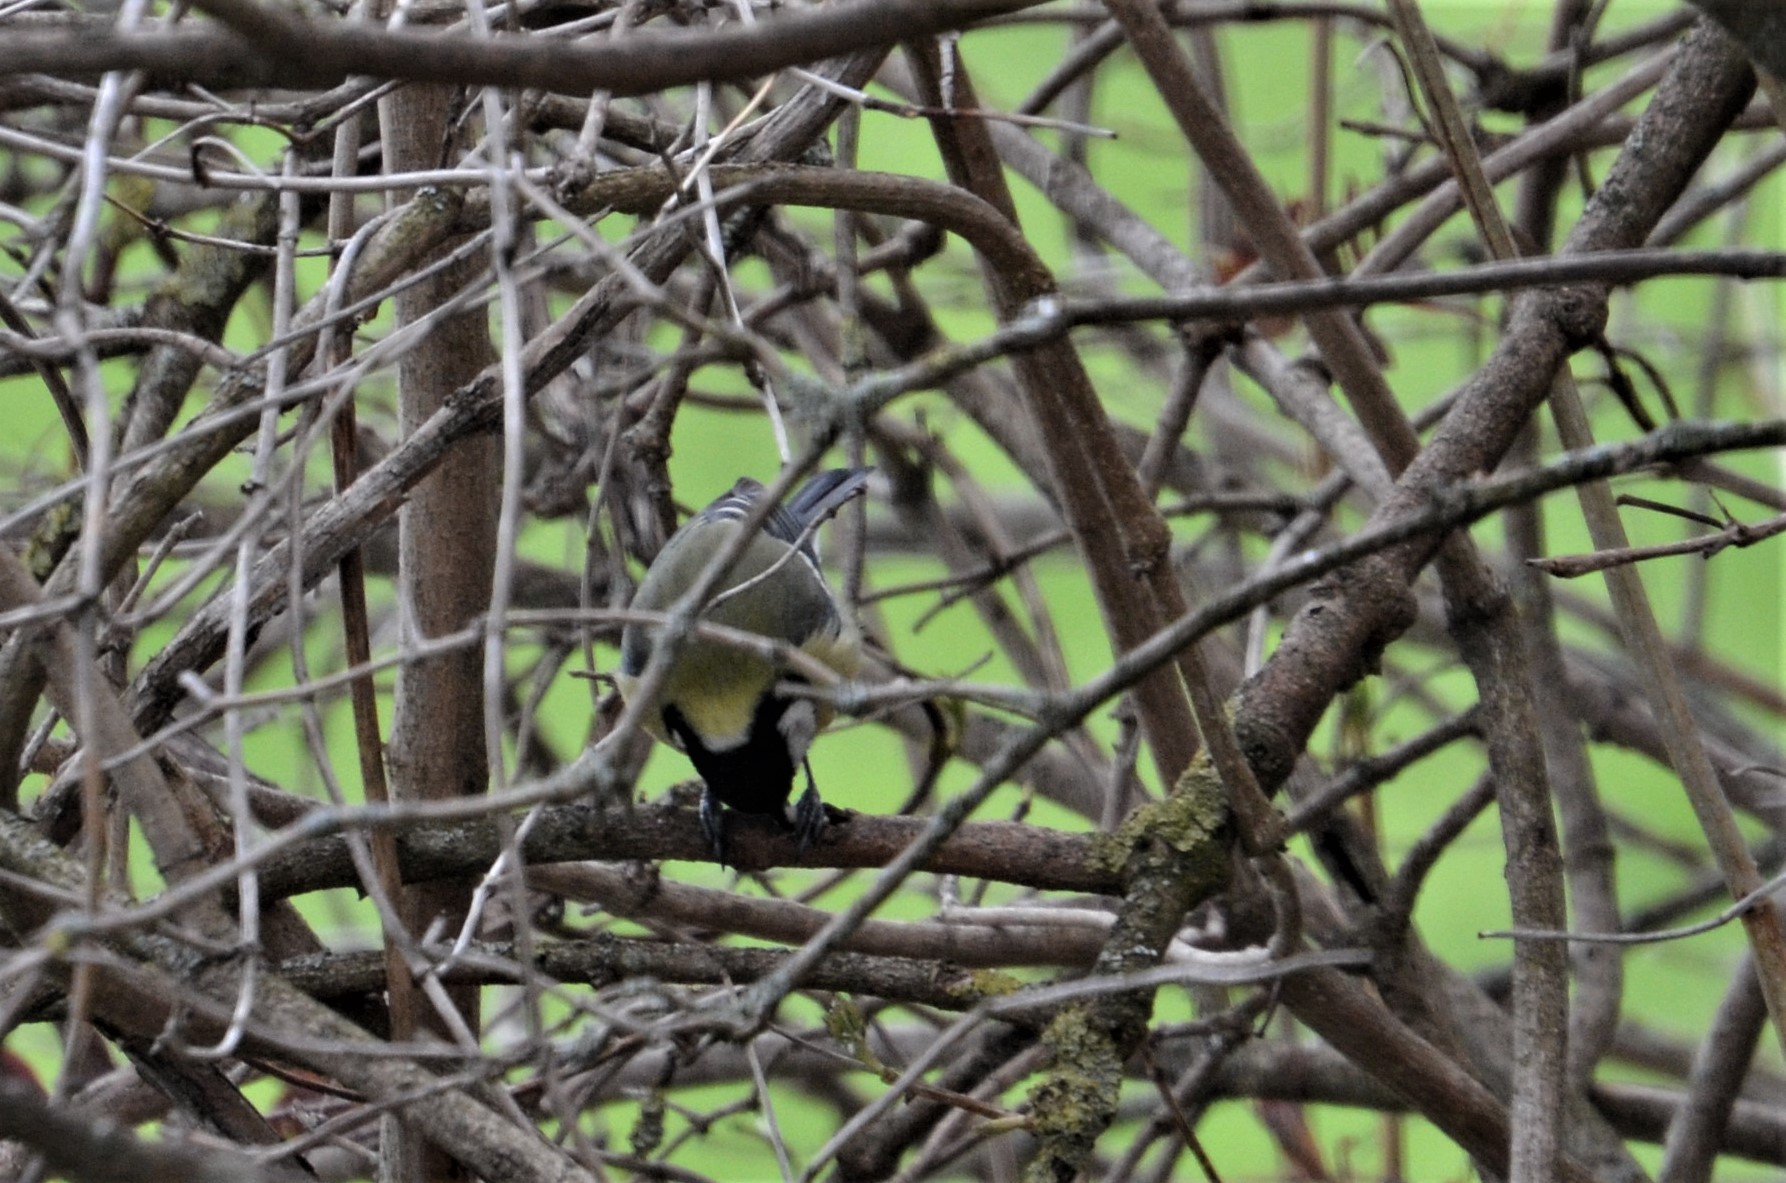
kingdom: Animalia
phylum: Chordata
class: Aves
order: Passeriformes
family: Paridae
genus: Parus
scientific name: Parus major
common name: Great tit
